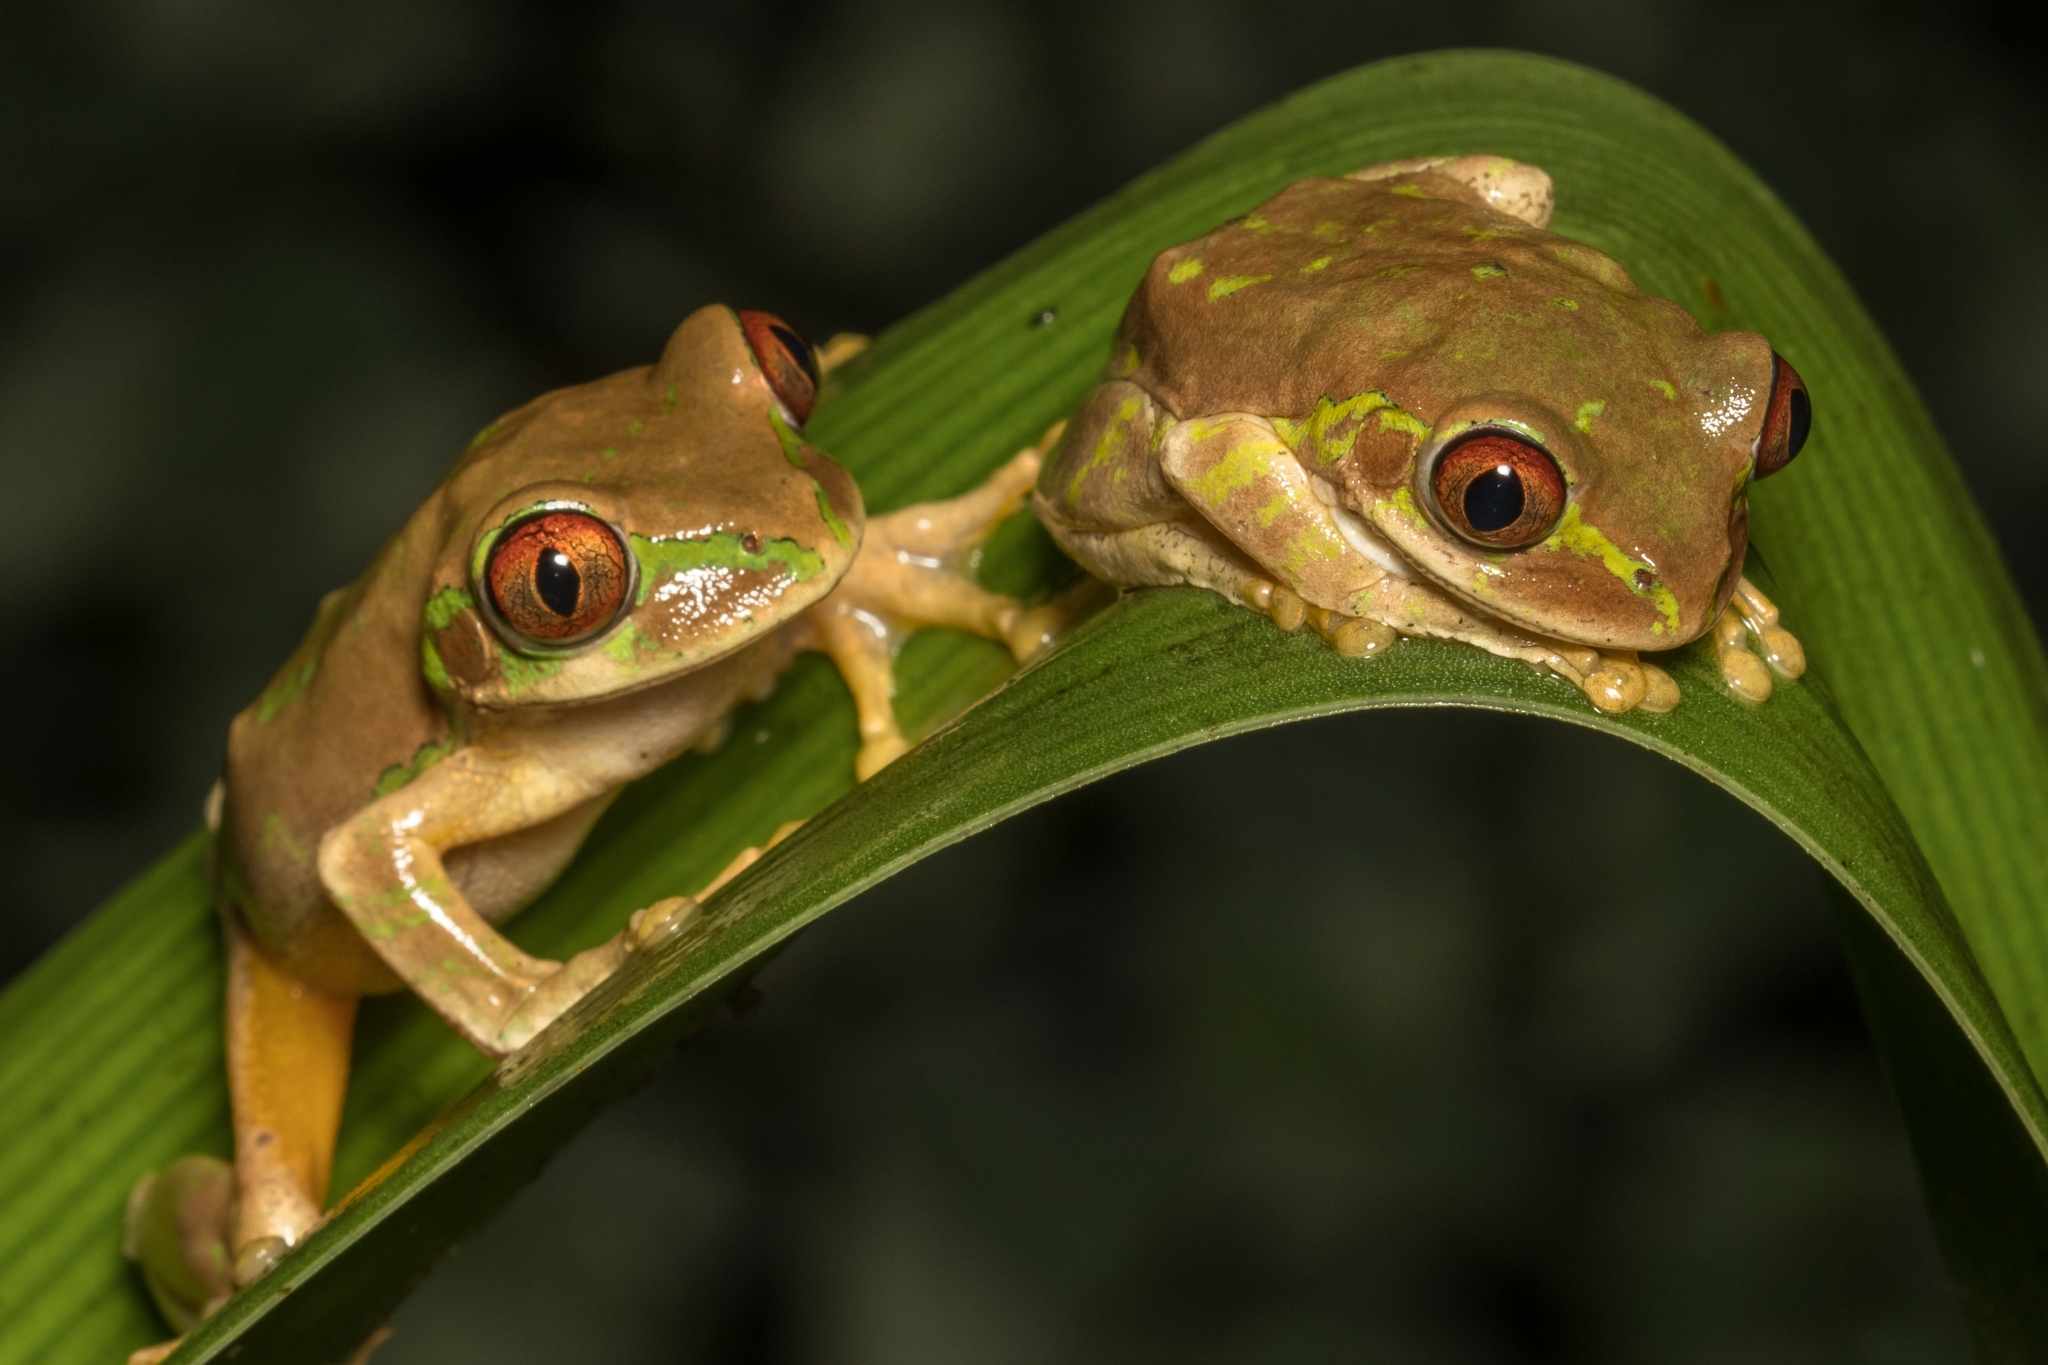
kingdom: Animalia
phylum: Chordata
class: Amphibia
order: Anura
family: Arthroleptidae
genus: Leptopelis
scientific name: Leptopelis natalensis
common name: Natal tree frog
